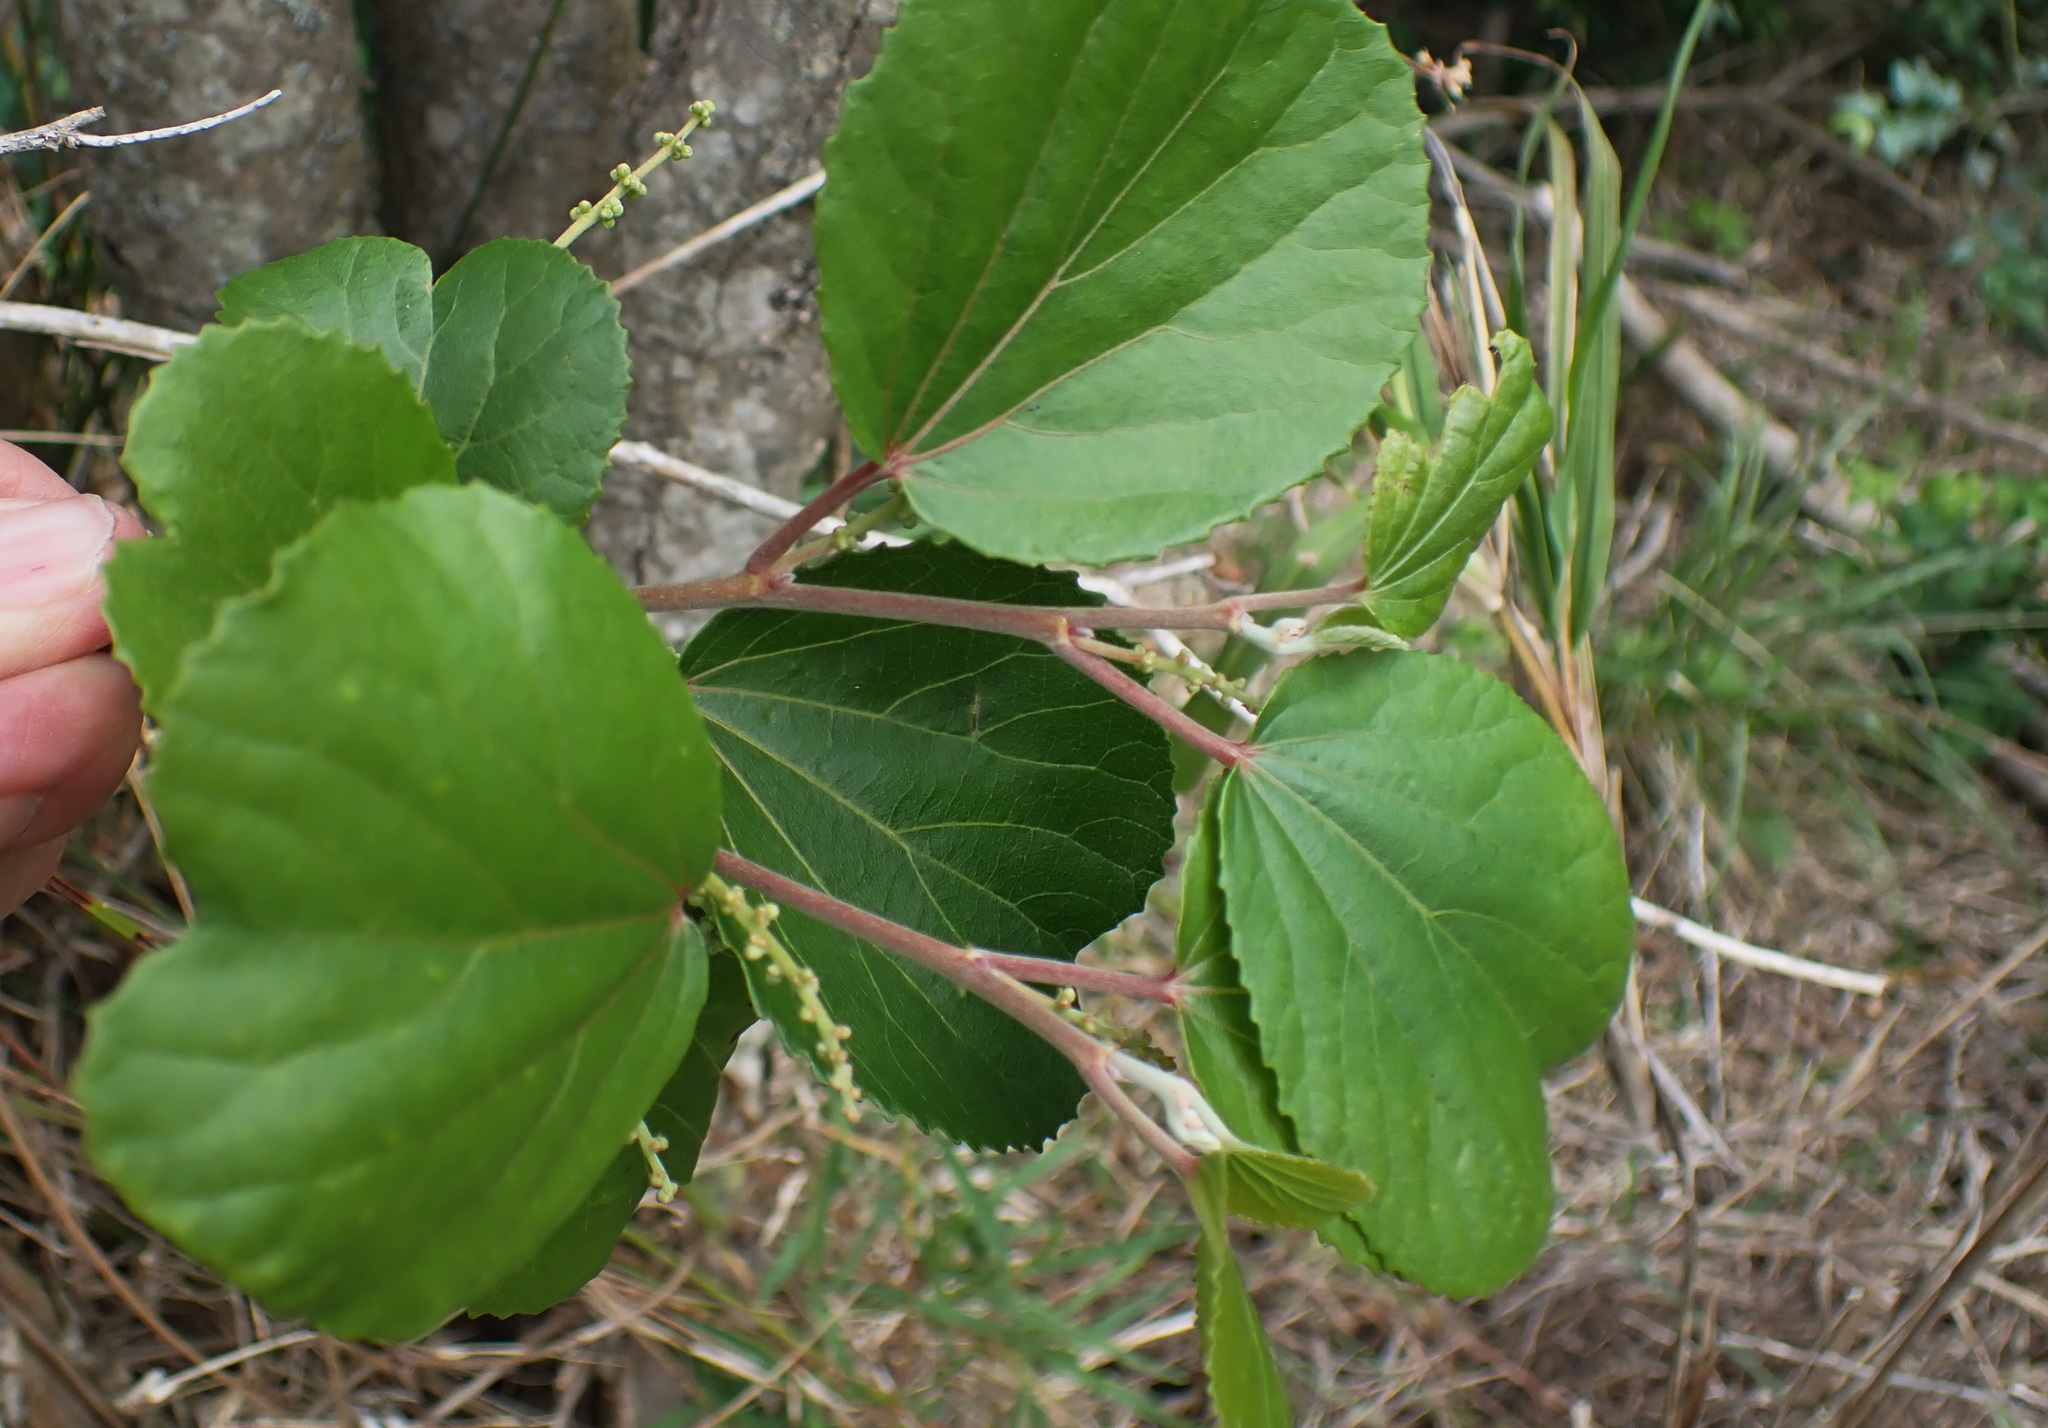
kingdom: Plantae
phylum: Tracheophyta
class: Magnoliopsida
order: Malpighiales
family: Salicaceae
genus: Trimeria
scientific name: Trimeria grandifolia
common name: Wild mulberry
